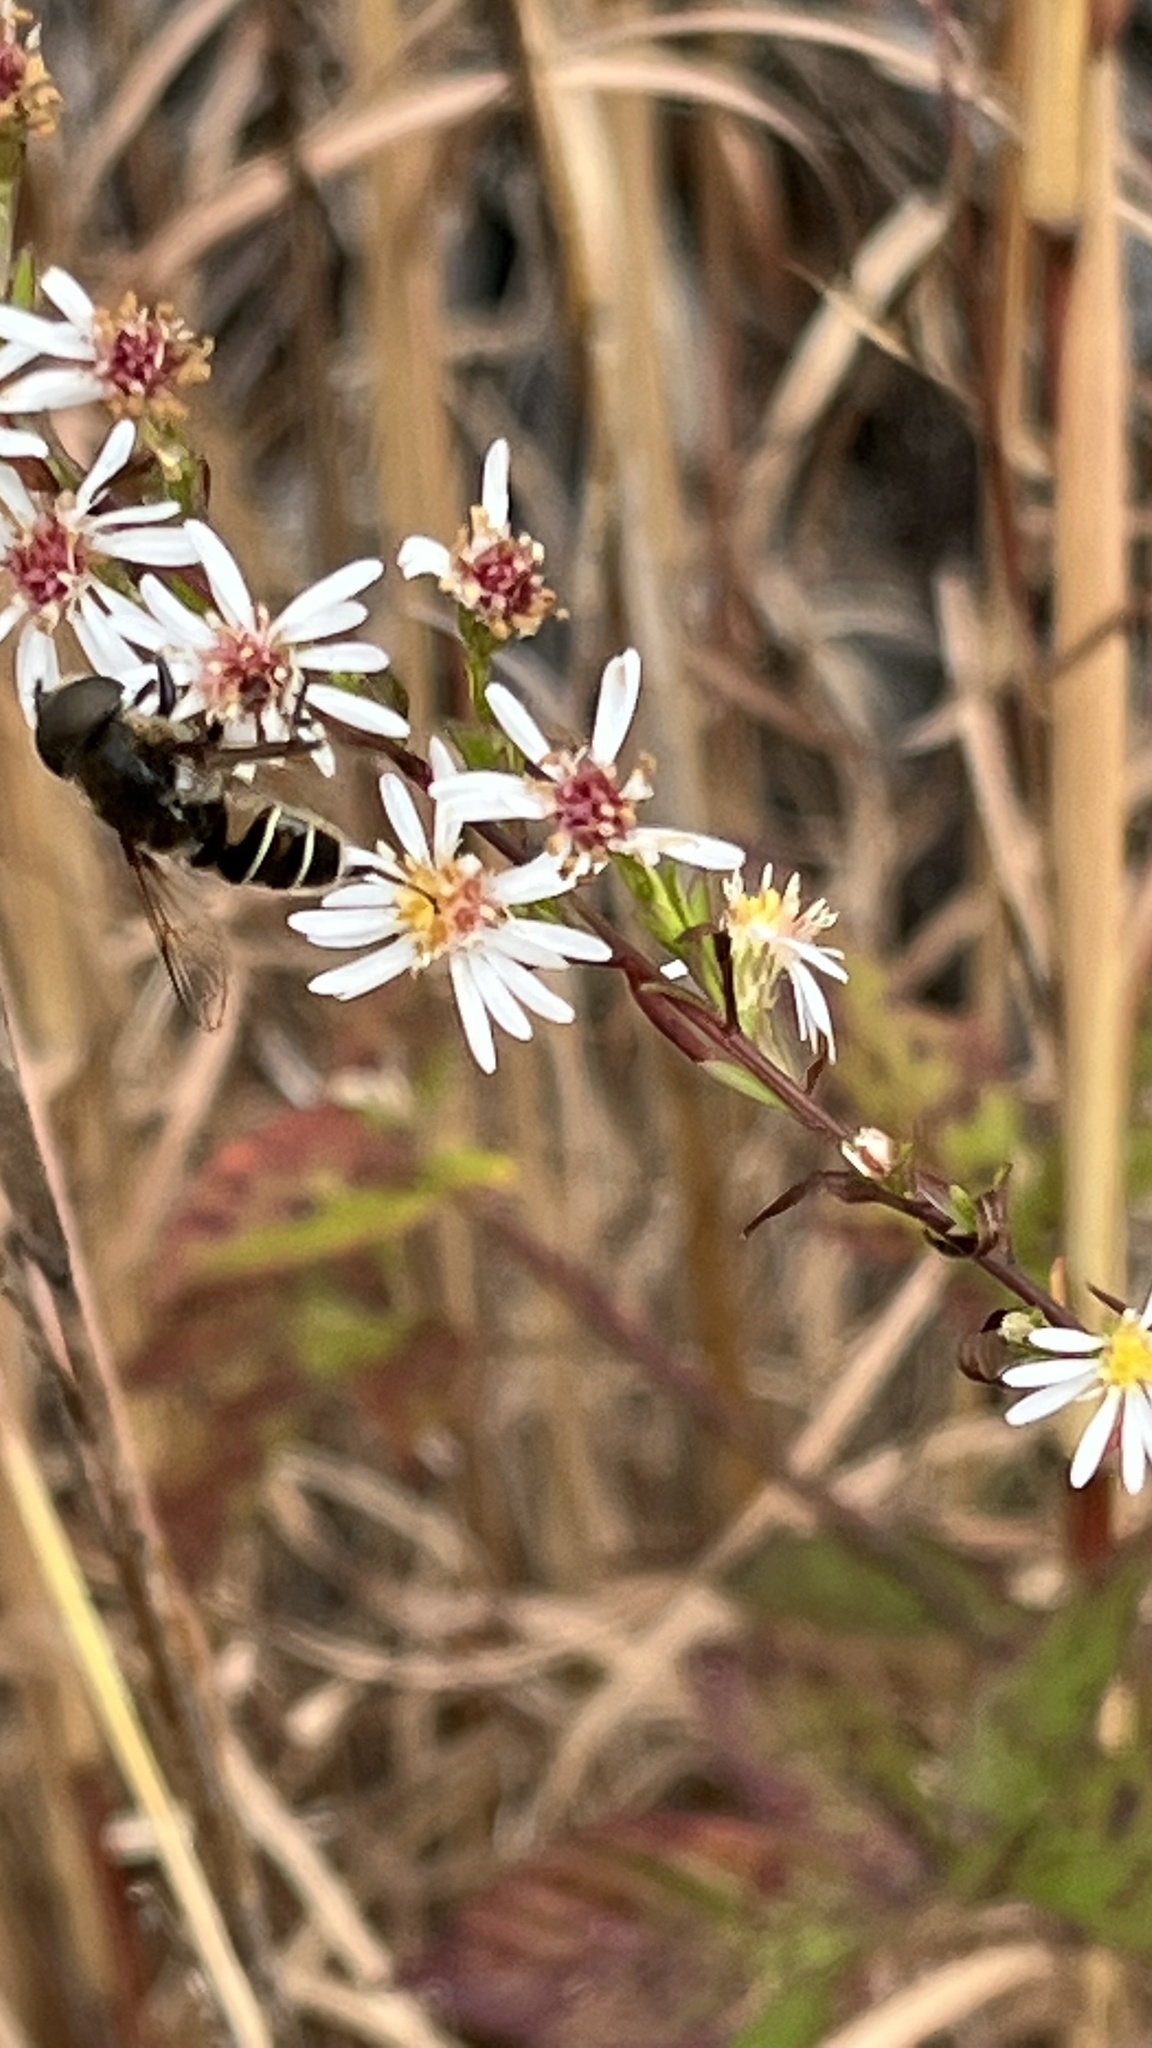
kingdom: Animalia
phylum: Arthropoda
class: Insecta
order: Diptera
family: Syrphidae
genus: Eristalis
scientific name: Eristalis dimidiata
